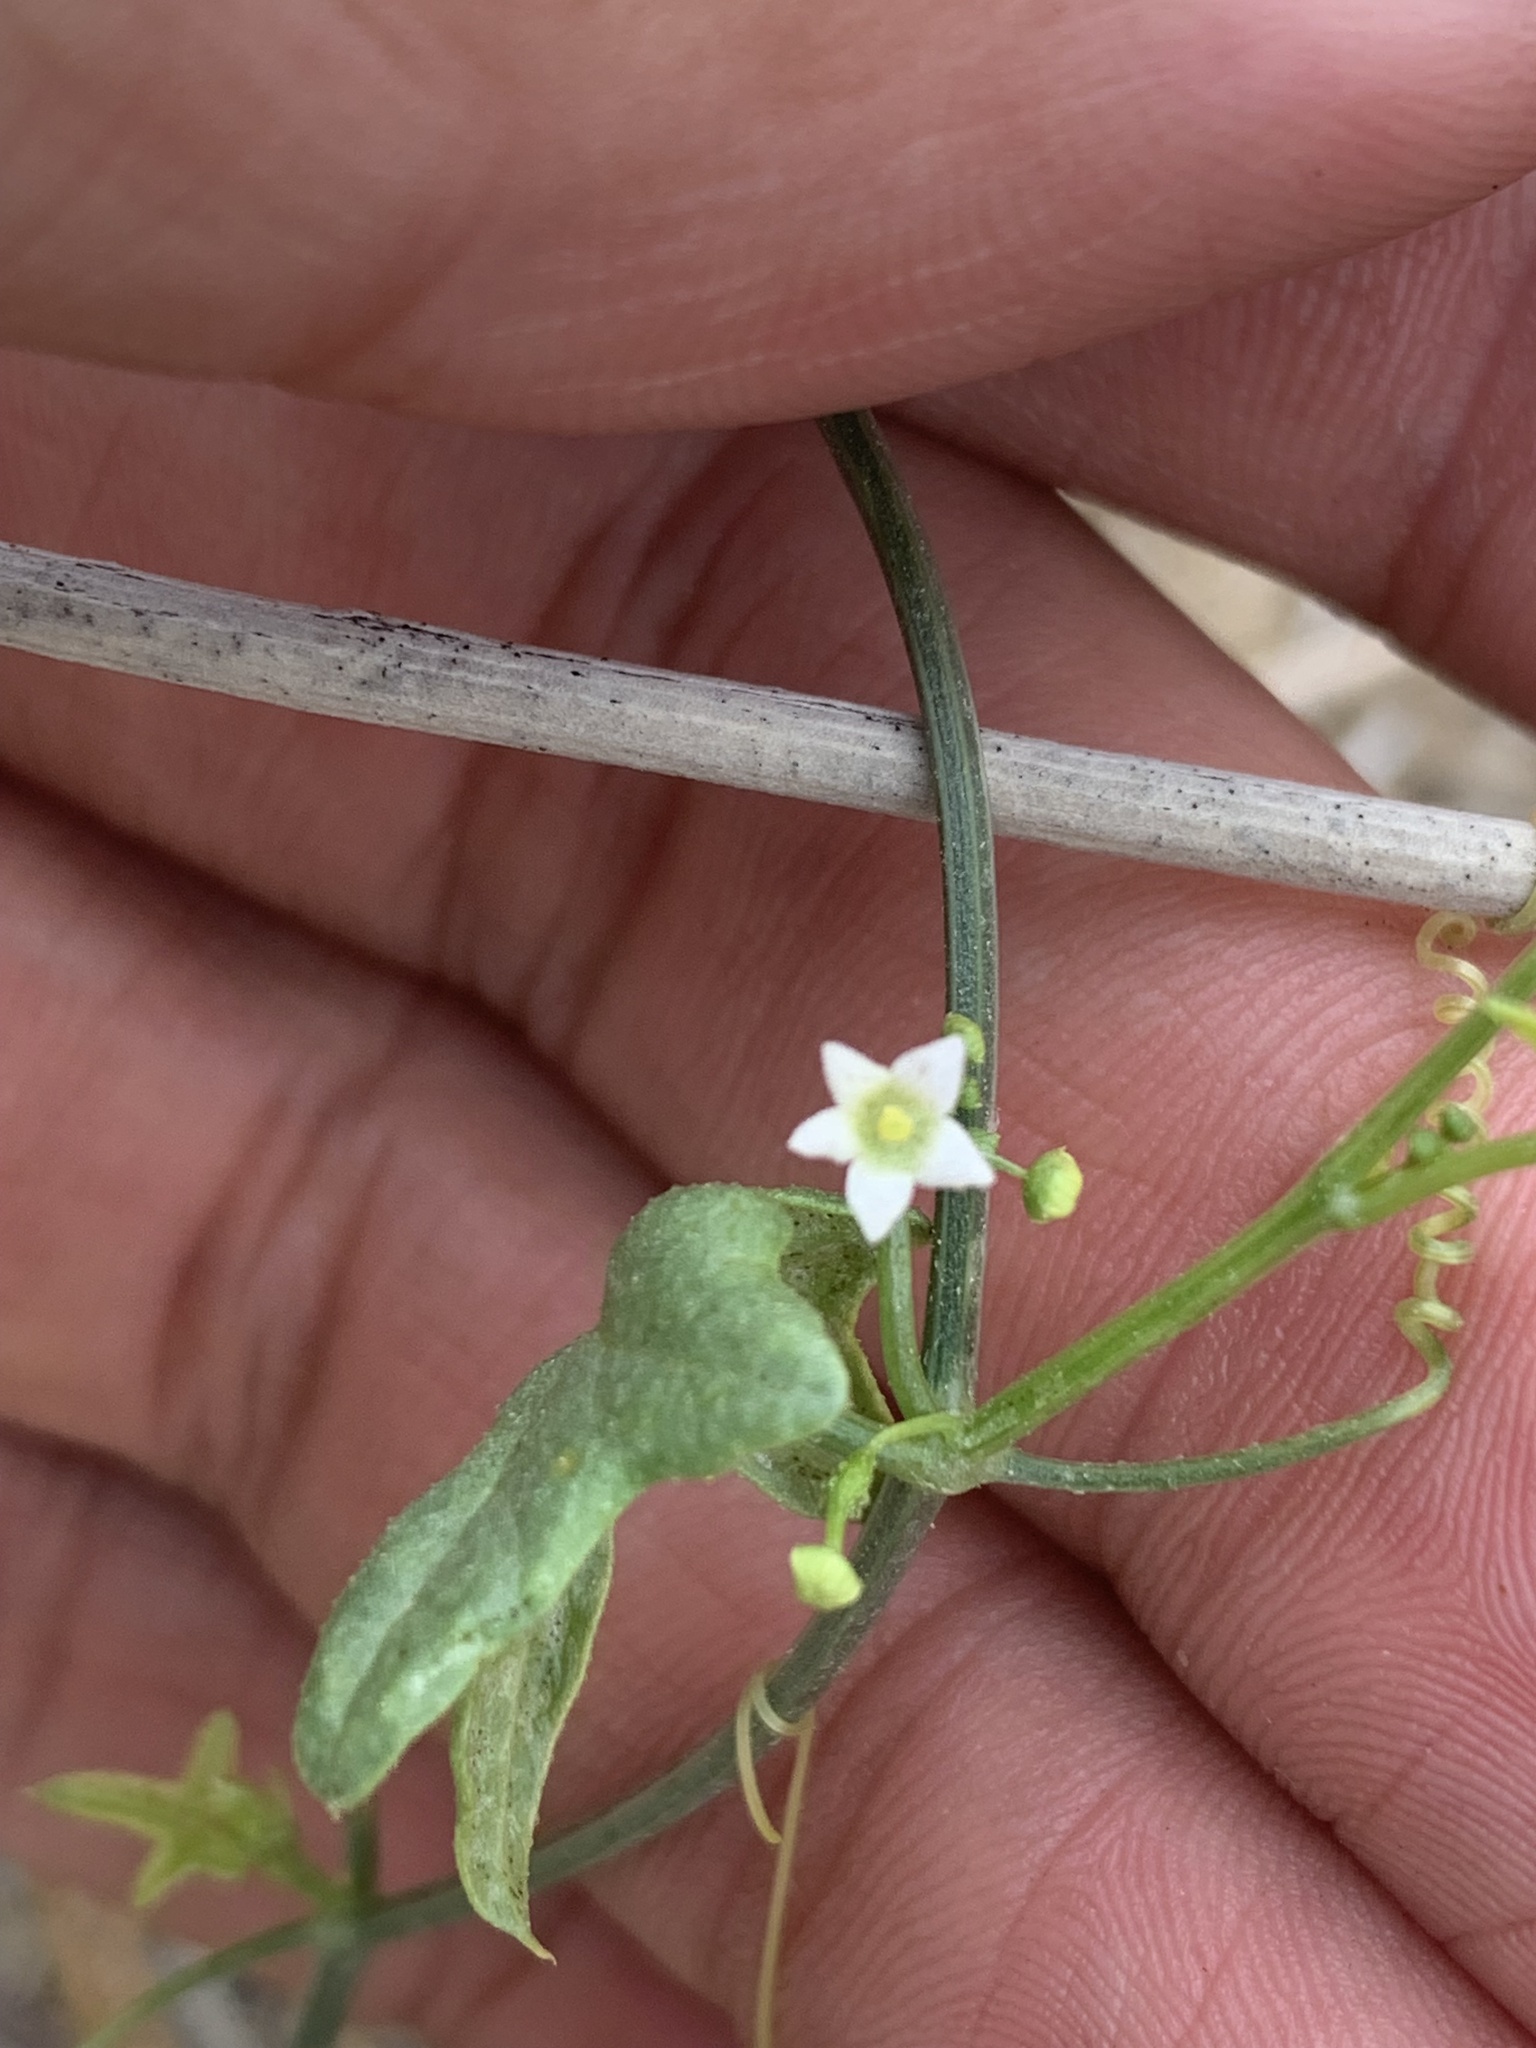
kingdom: Plantae
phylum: Tracheophyta
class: Magnoliopsida
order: Cucurbitales
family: Cucurbitaceae
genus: Echinopepon
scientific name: Echinopepon bigelovii
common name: Desert starvine
